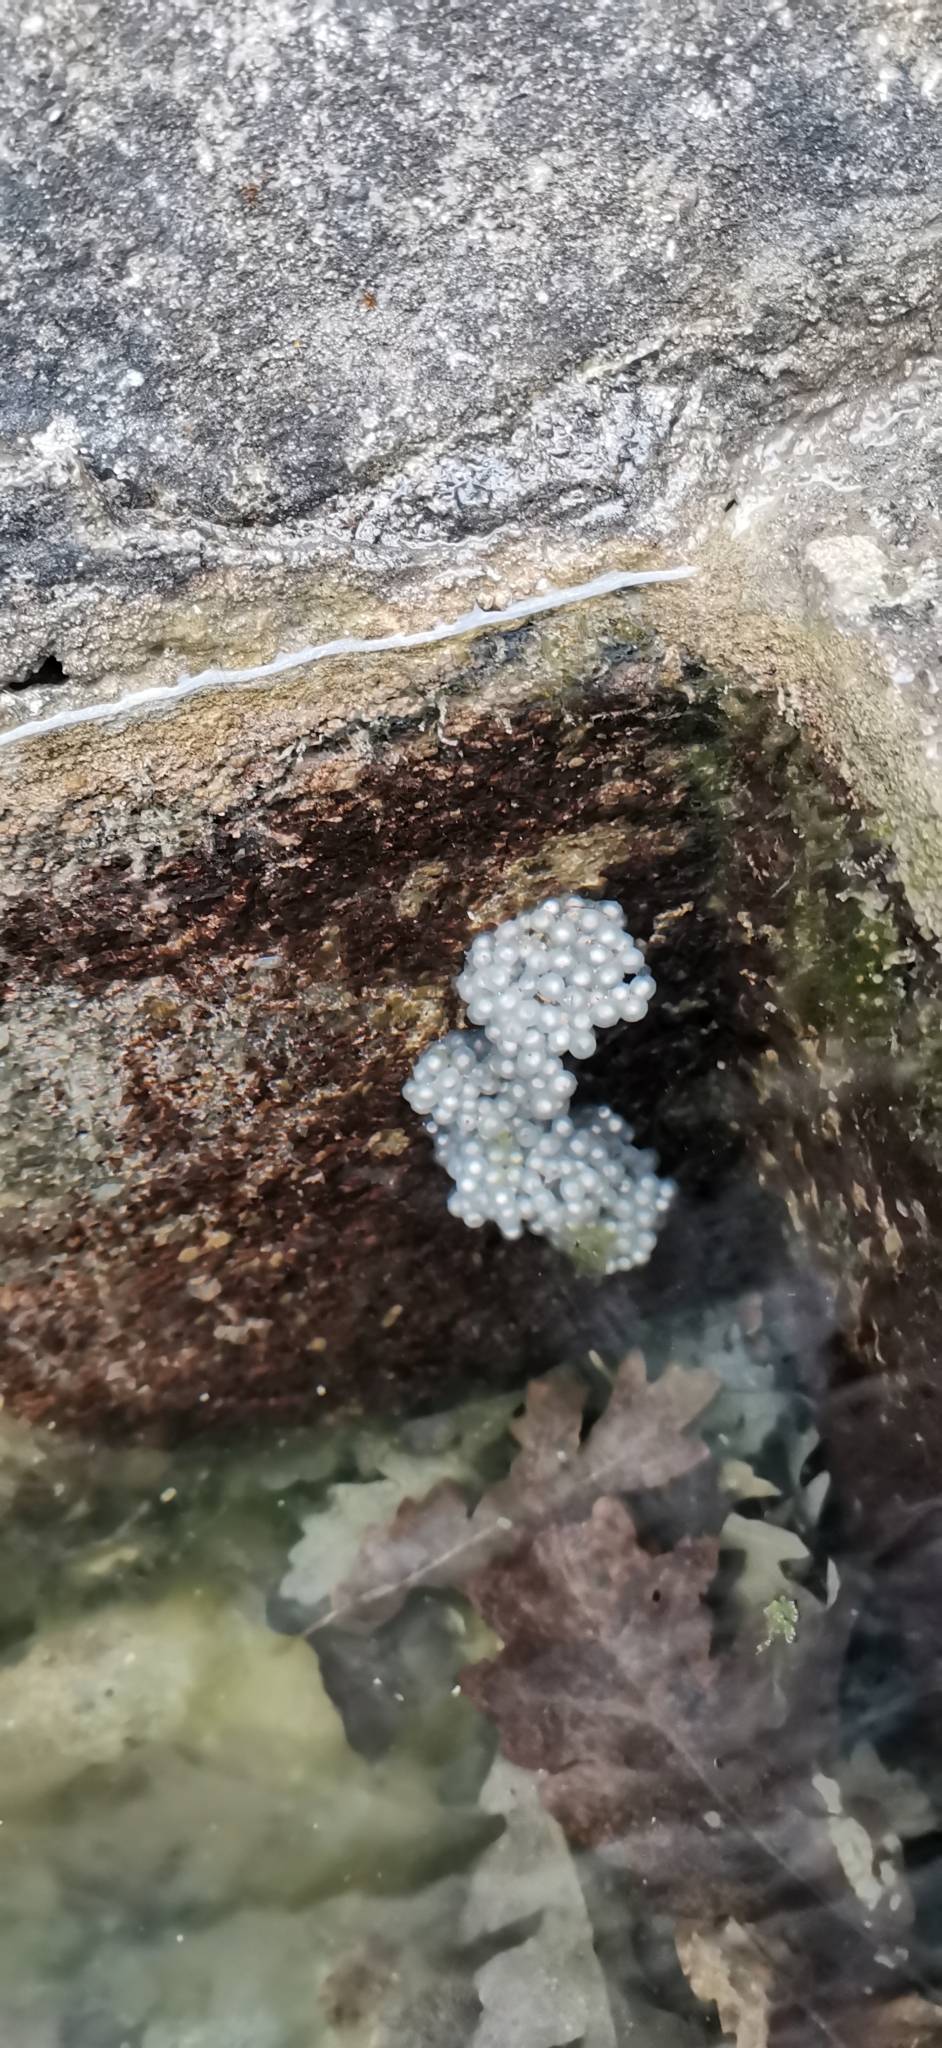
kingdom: Animalia
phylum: Chordata
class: Amphibia
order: Anura
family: Ranidae
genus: Rana
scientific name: Rana italica
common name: Italian stream frog
